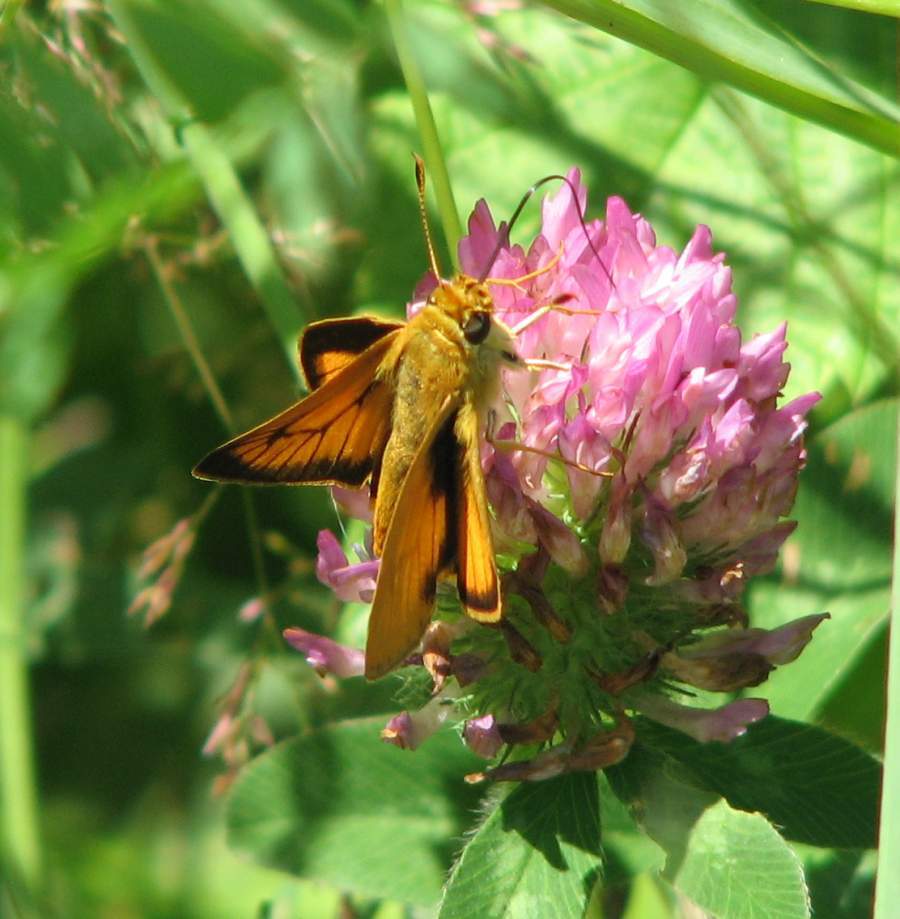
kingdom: Animalia
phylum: Arthropoda
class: Insecta
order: Lepidoptera
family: Hesperiidae
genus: Atrytone
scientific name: Atrytone delaware
